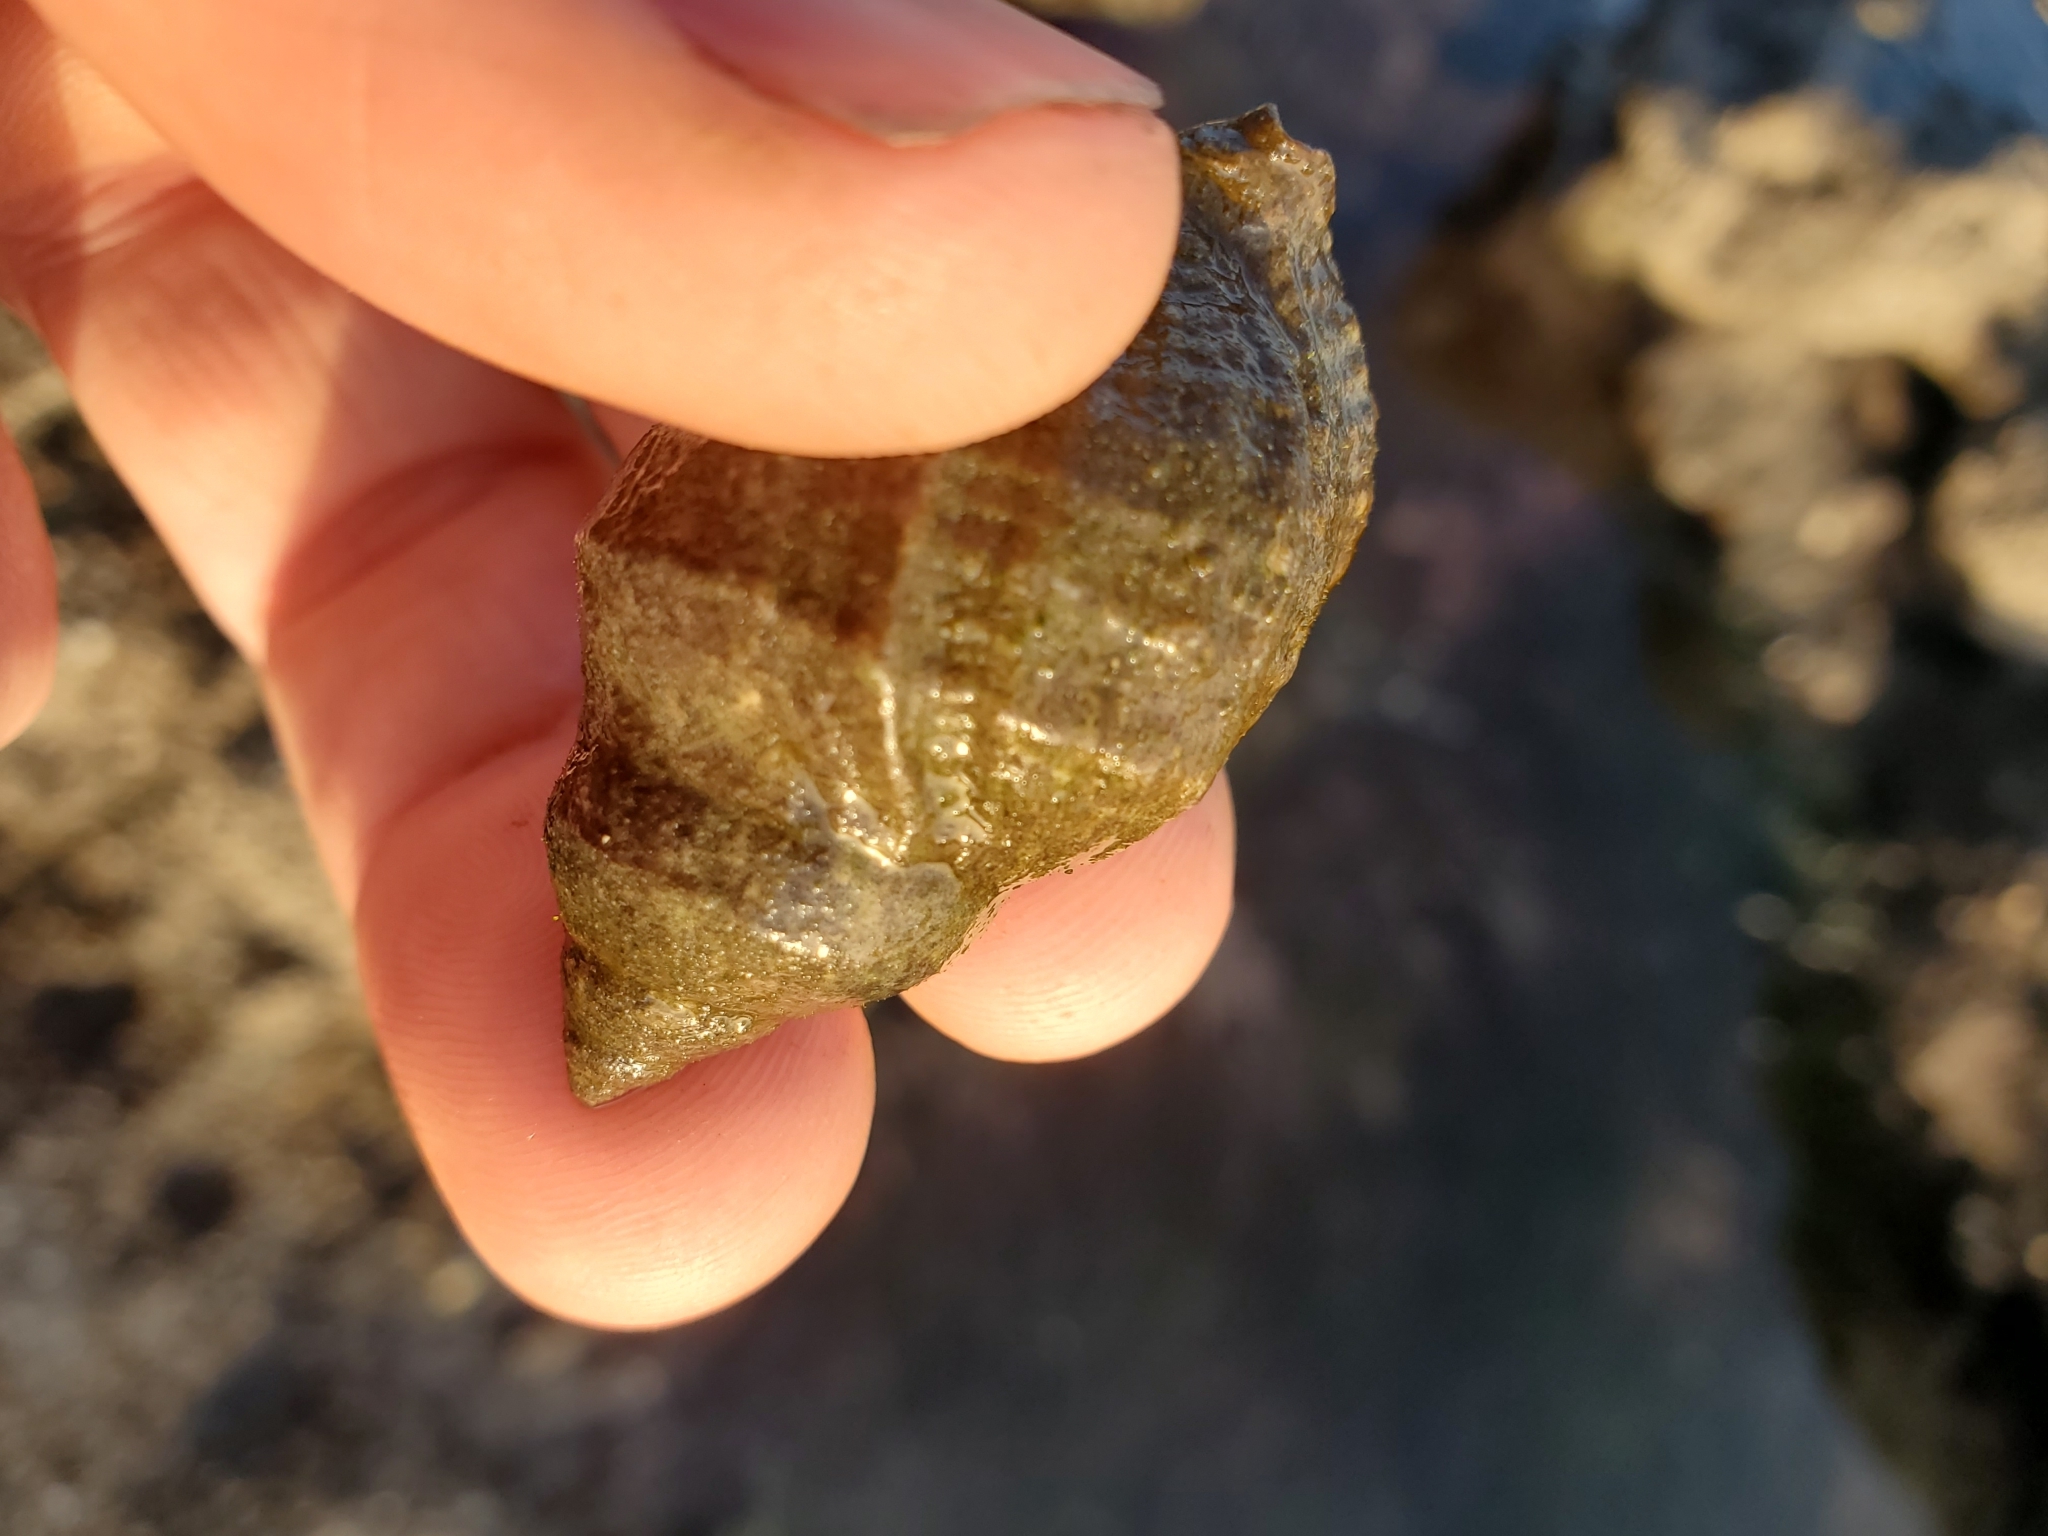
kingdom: Animalia
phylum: Mollusca
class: Gastropoda
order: Neogastropoda
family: Muricidae
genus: Nucella
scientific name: Nucella lamellosa
